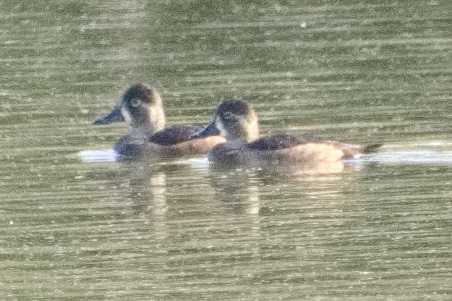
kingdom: Animalia
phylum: Chordata
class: Aves
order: Anseriformes
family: Anatidae
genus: Aythya
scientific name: Aythya collaris
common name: Ring-necked duck
